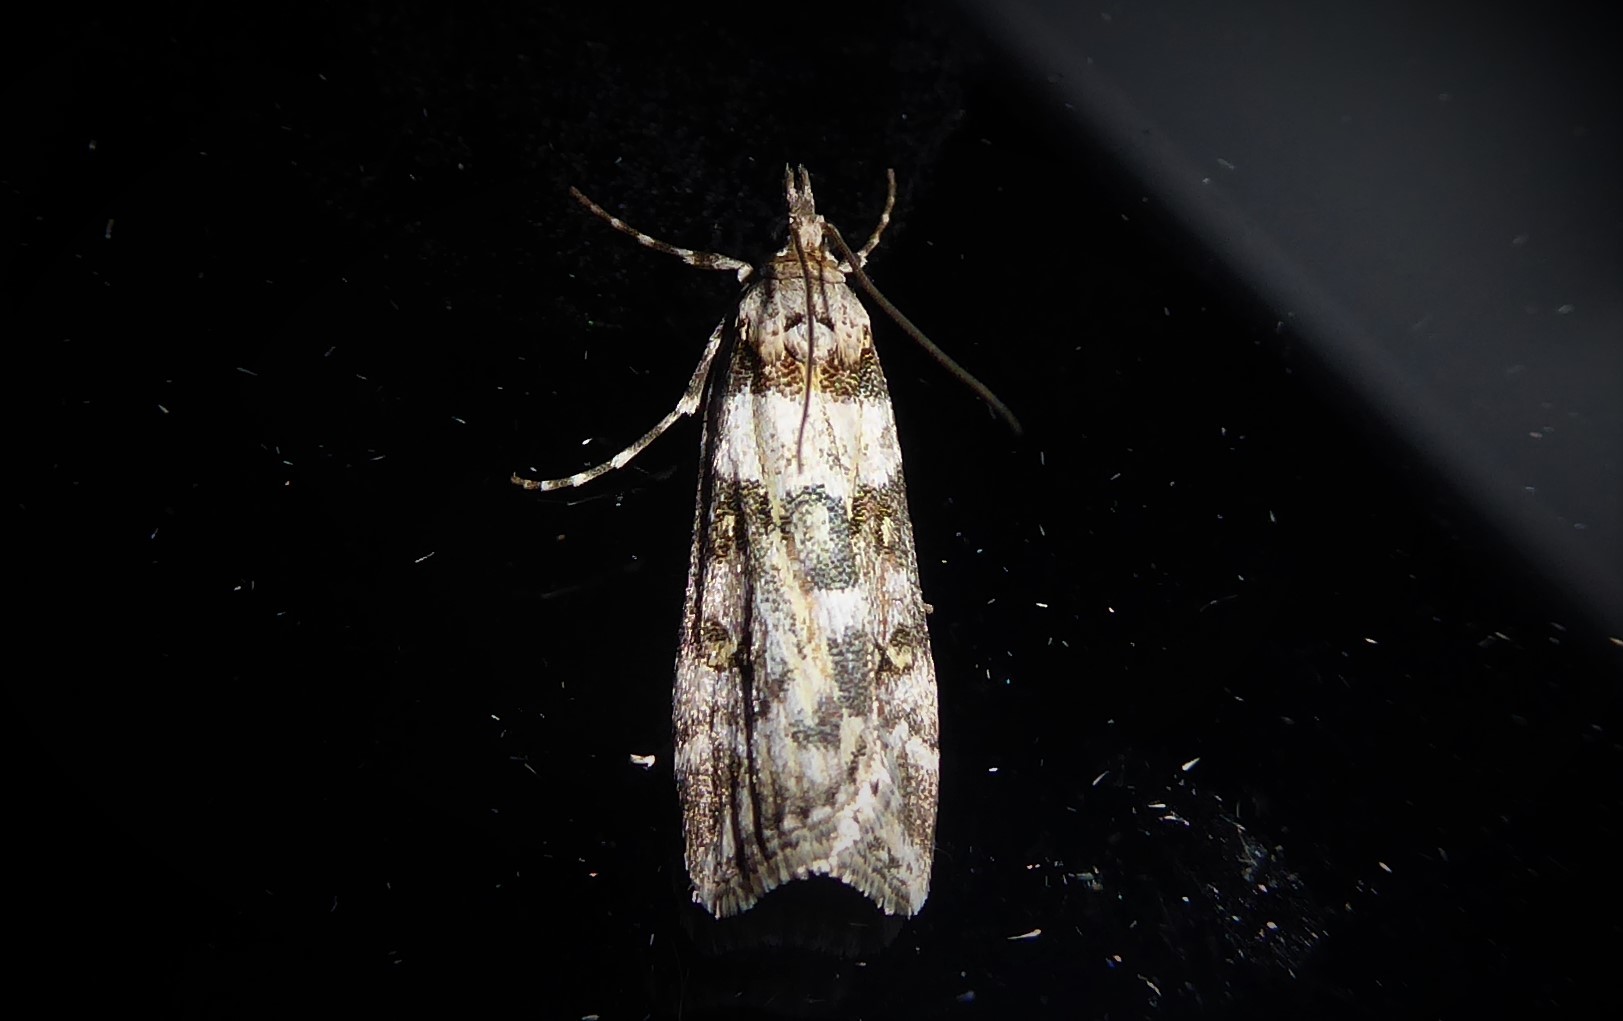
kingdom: Animalia
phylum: Arthropoda
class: Insecta
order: Lepidoptera
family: Crambidae
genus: Eudonia
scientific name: Eudonia diphtheralis
